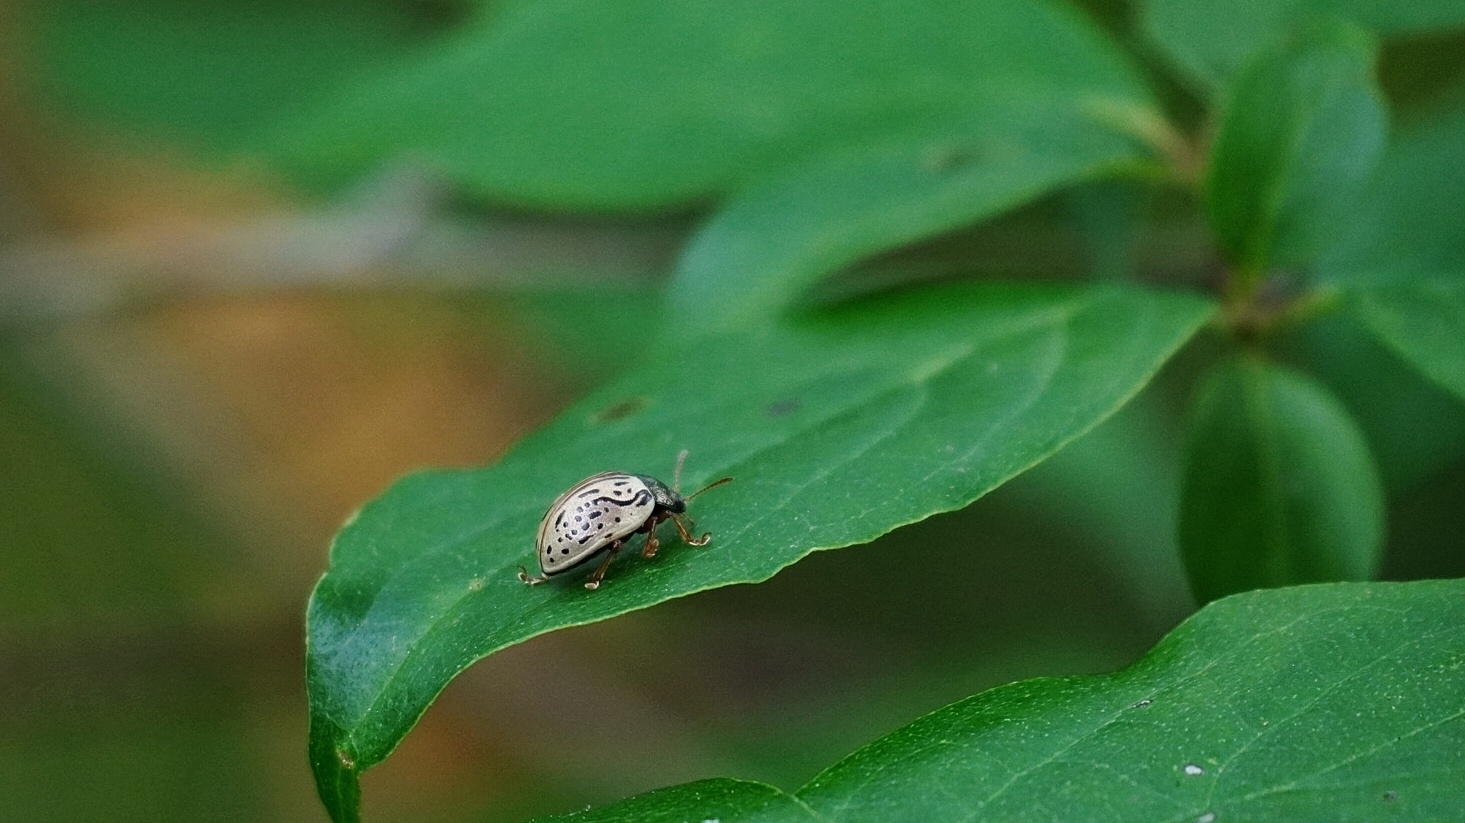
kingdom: Animalia
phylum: Arthropoda
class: Insecta
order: Coleoptera
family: Chrysomelidae
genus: Calligrapha
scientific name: Calligrapha philadelphica
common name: Dogwood leaf beetle
